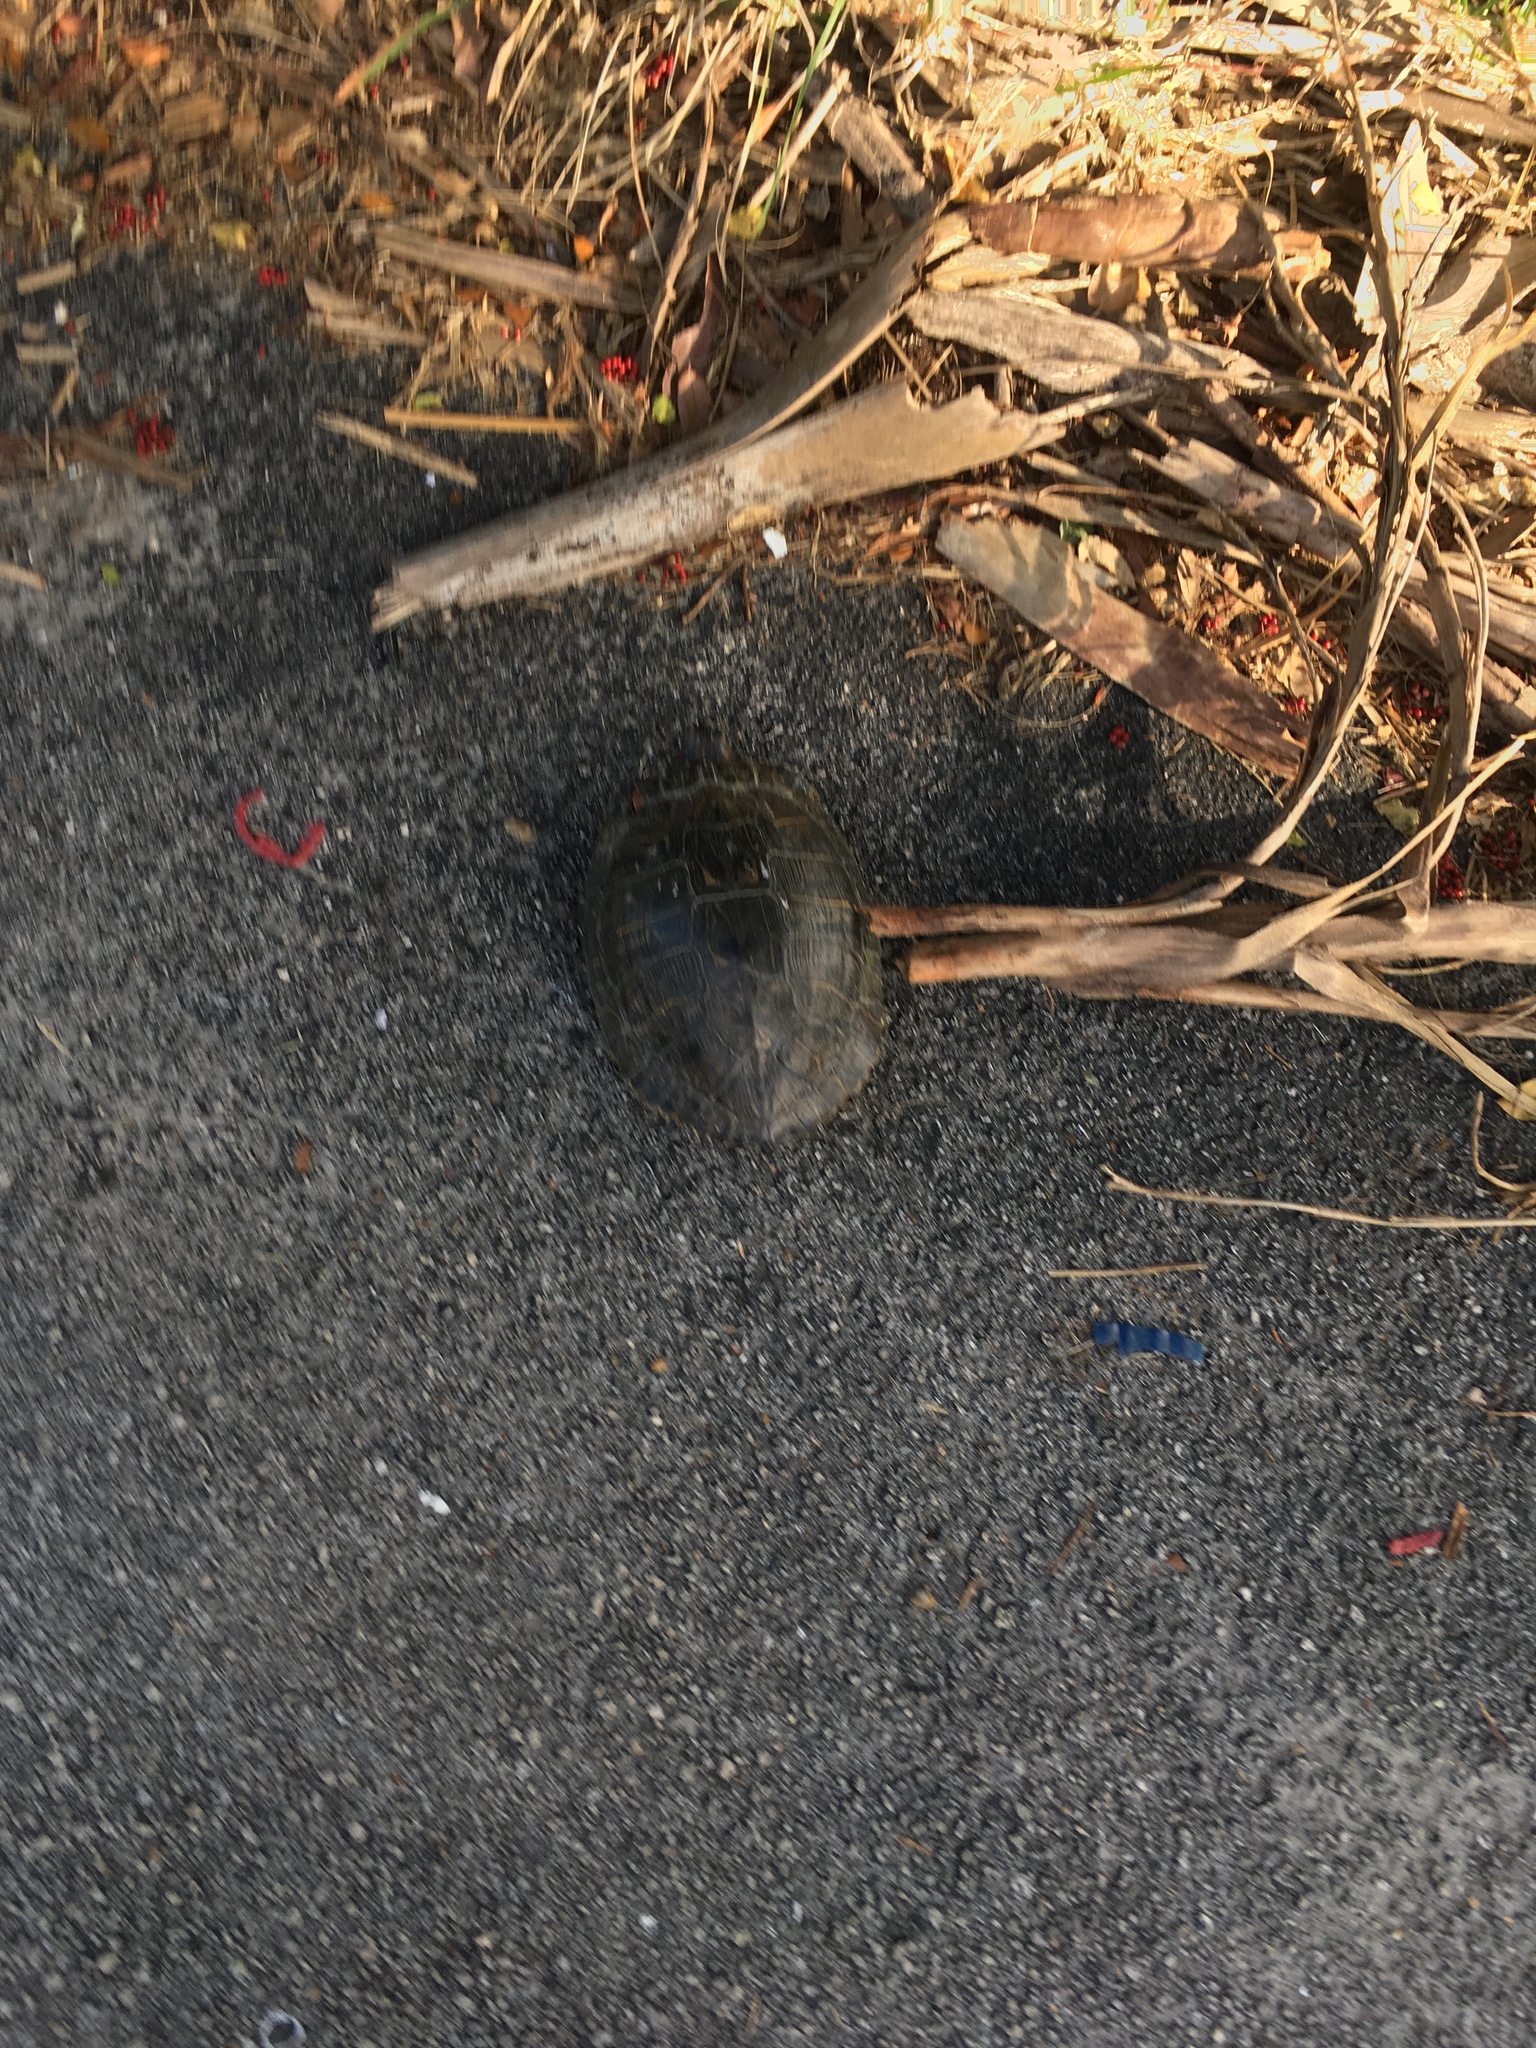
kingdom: Animalia
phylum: Chordata
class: Testudines
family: Emydidae
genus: Trachemys
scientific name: Trachemys scripta
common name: Slider
